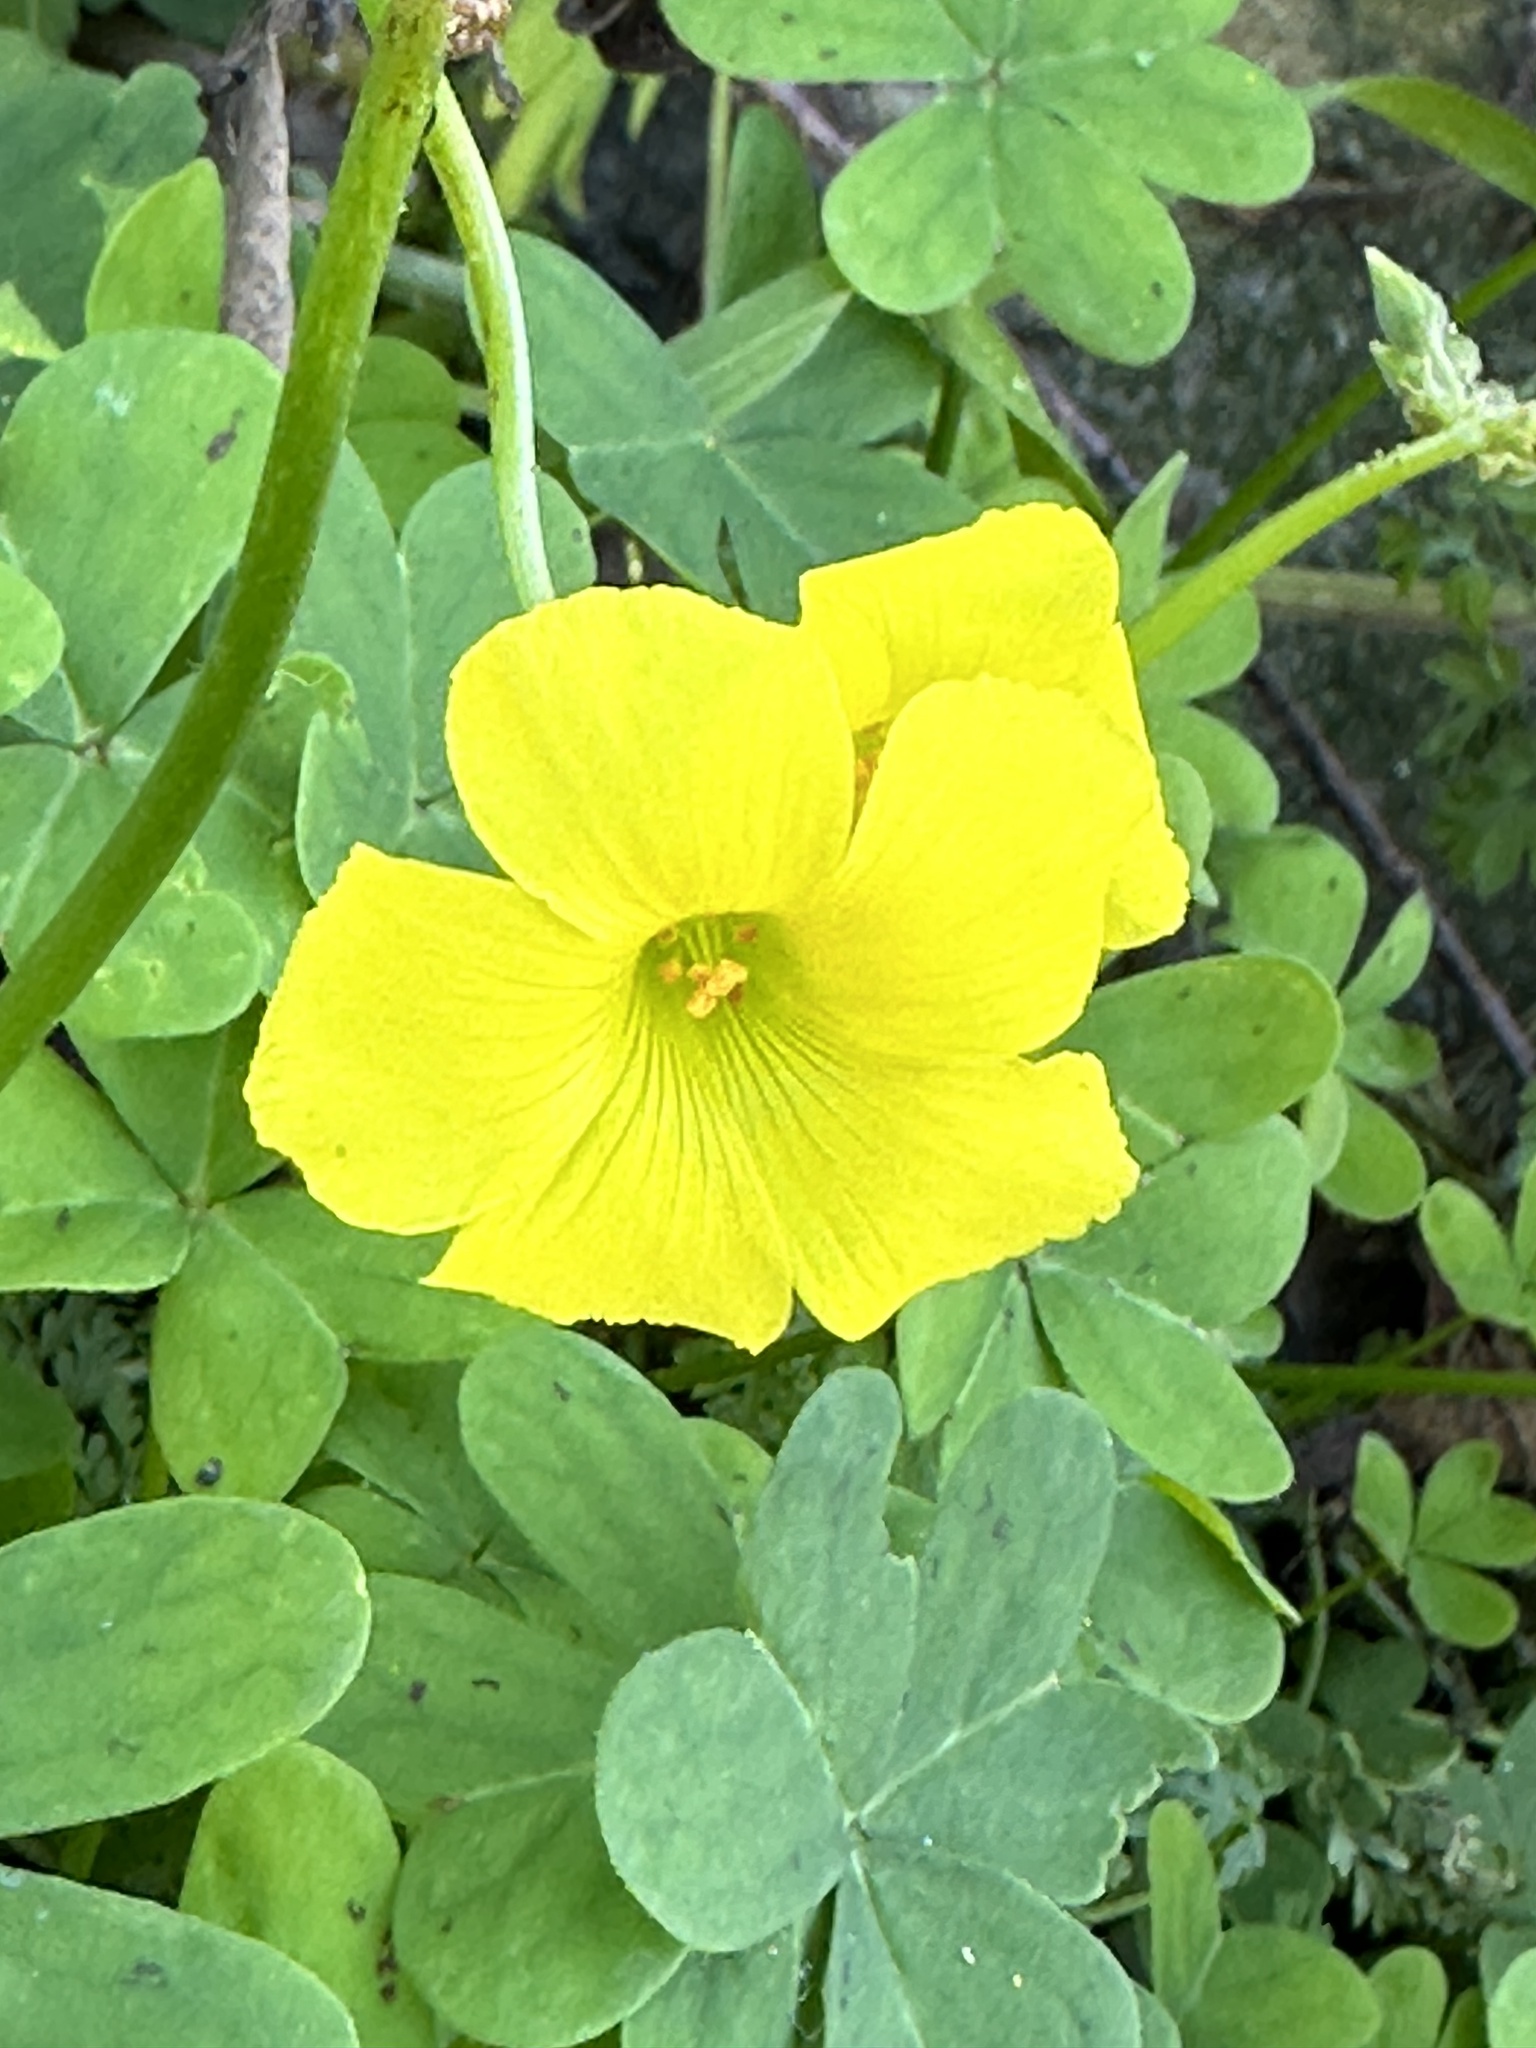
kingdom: Plantae
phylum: Tracheophyta
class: Magnoliopsida
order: Oxalidales
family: Oxalidaceae
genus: Oxalis
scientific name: Oxalis pes-caprae
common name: Bermuda-buttercup
